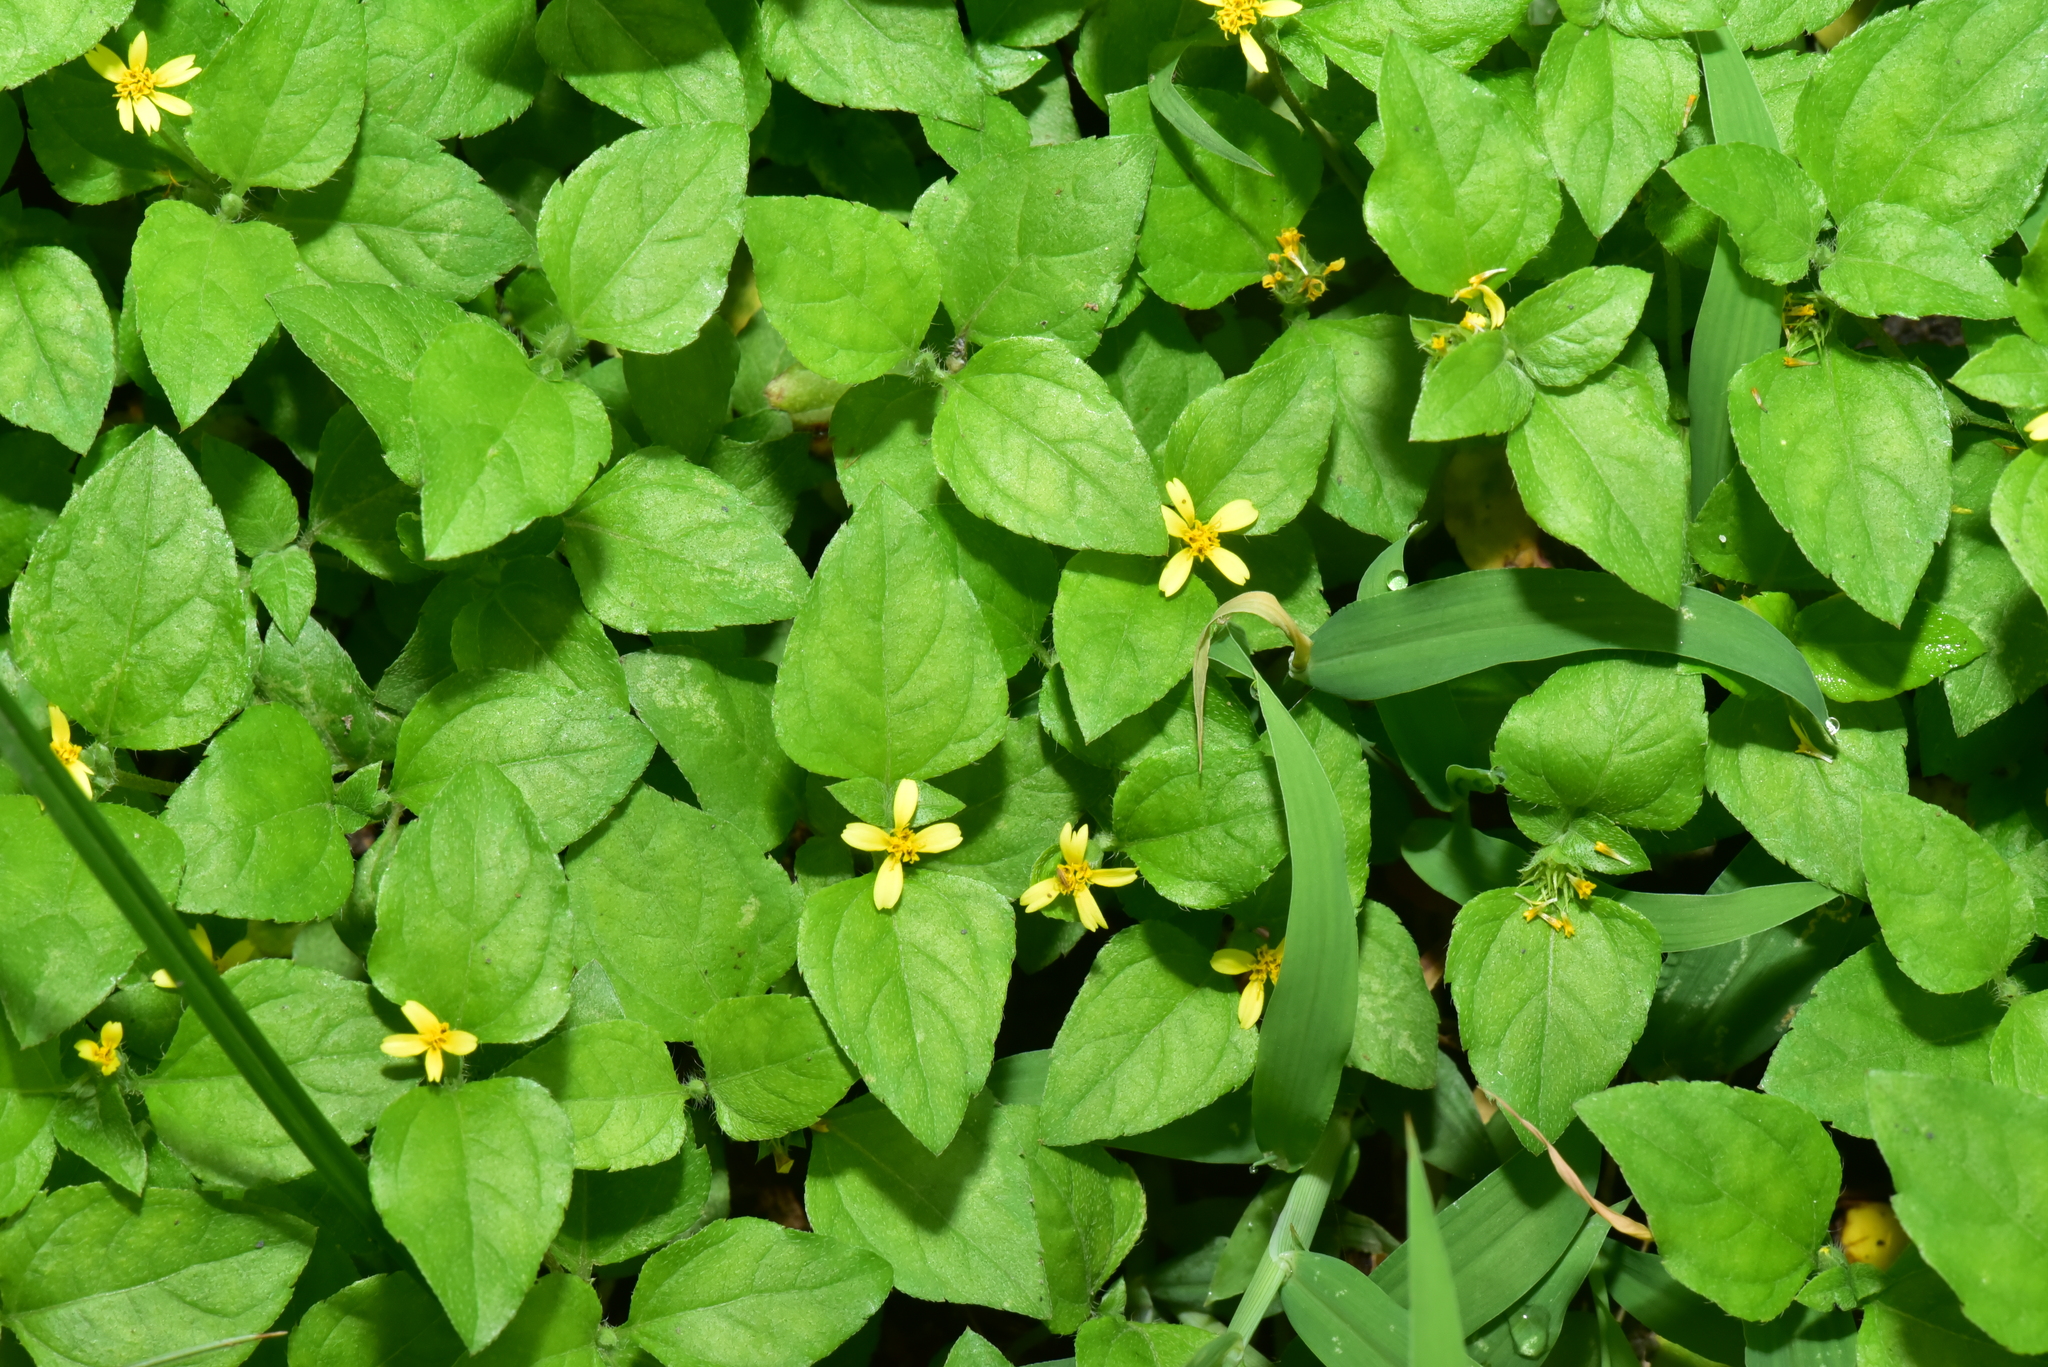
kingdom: Plantae
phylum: Tracheophyta
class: Magnoliopsida
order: Asterales
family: Asteraceae
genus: Calyptocarpus
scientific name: Calyptocarpus vialis
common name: Straggler daisy
